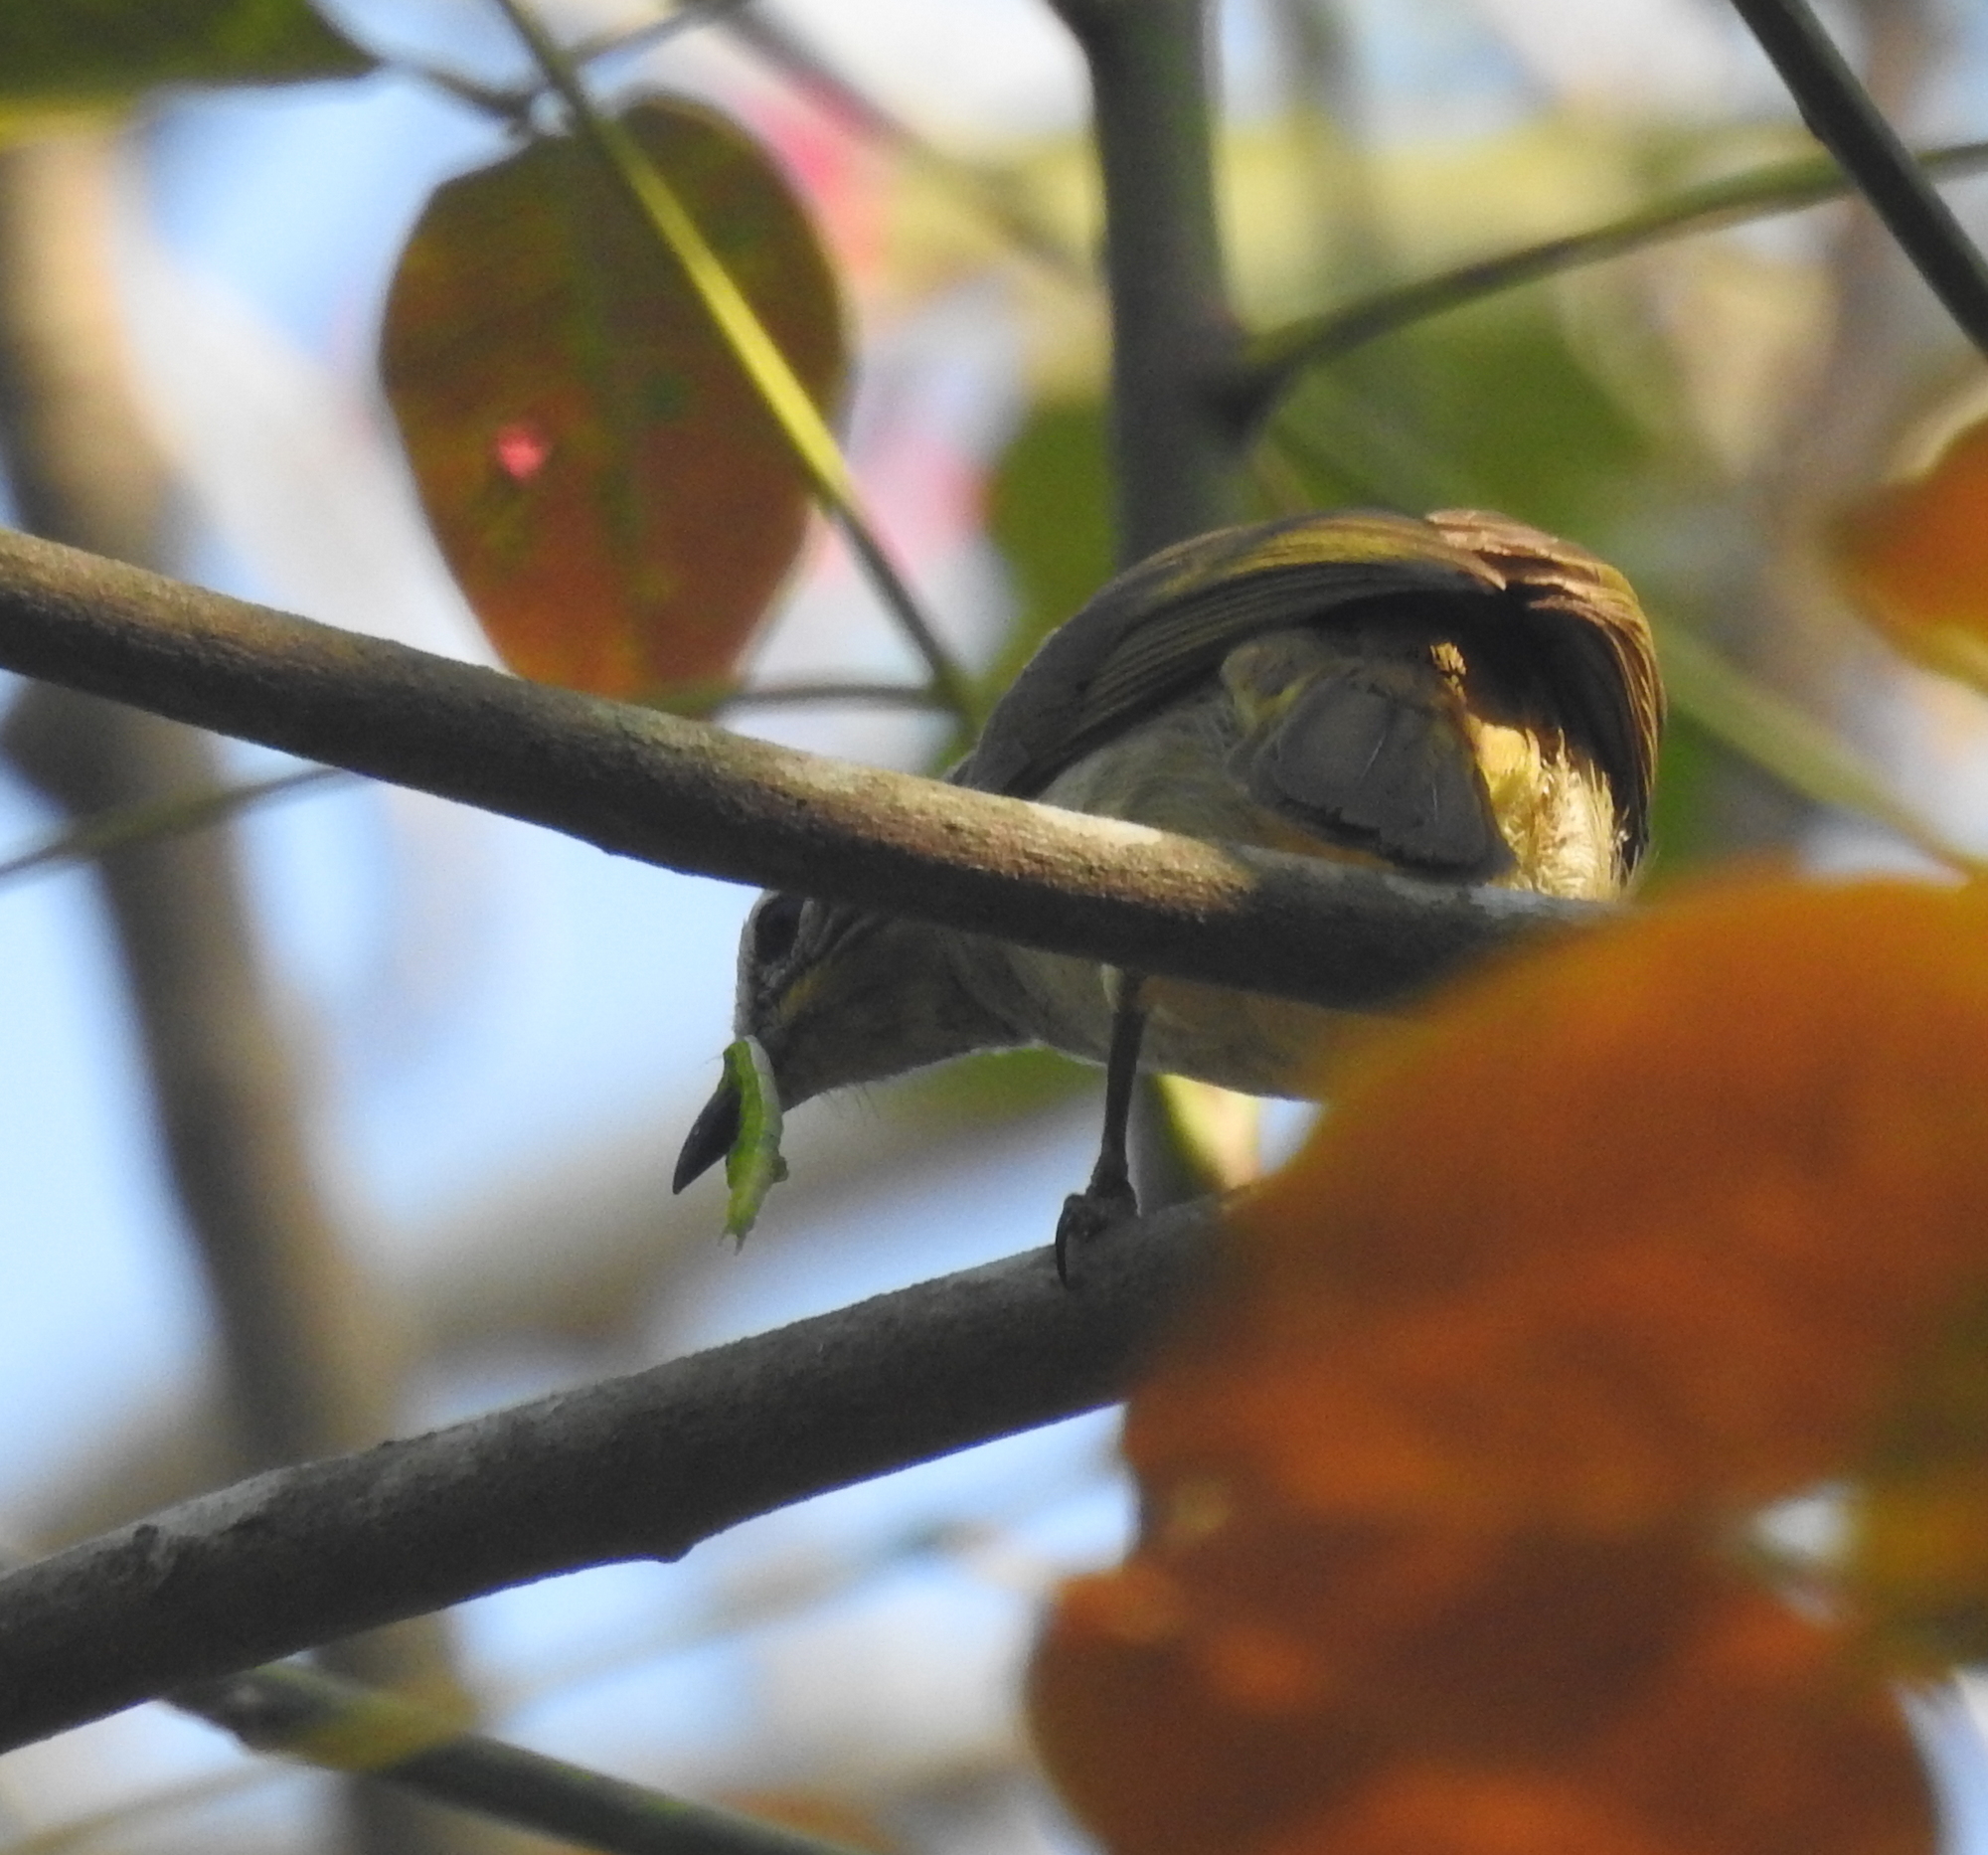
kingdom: Animalia
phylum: Chordata
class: Aves
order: Passeriformes
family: Pycnonotidae
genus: Pycnonotus
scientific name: Pycnonotus luteolus
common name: White-browed bulbul
